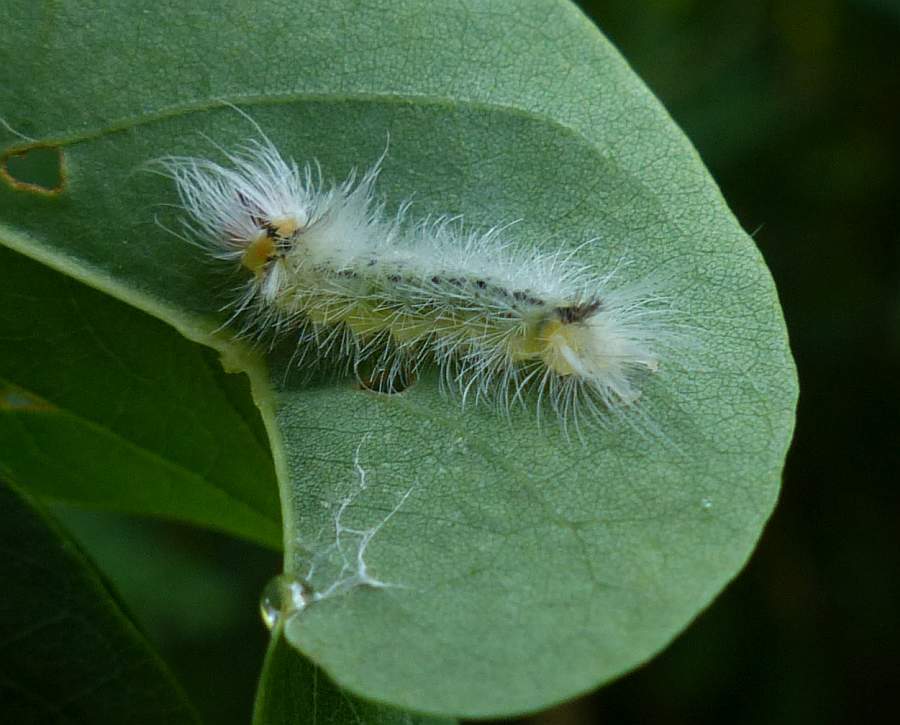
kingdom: Animalia
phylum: Arthropoda
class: Insecta
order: Lepidoptera
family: Erebidae
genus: Halysidota
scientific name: Halysidota tessellaris
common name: Banded tussock moth
